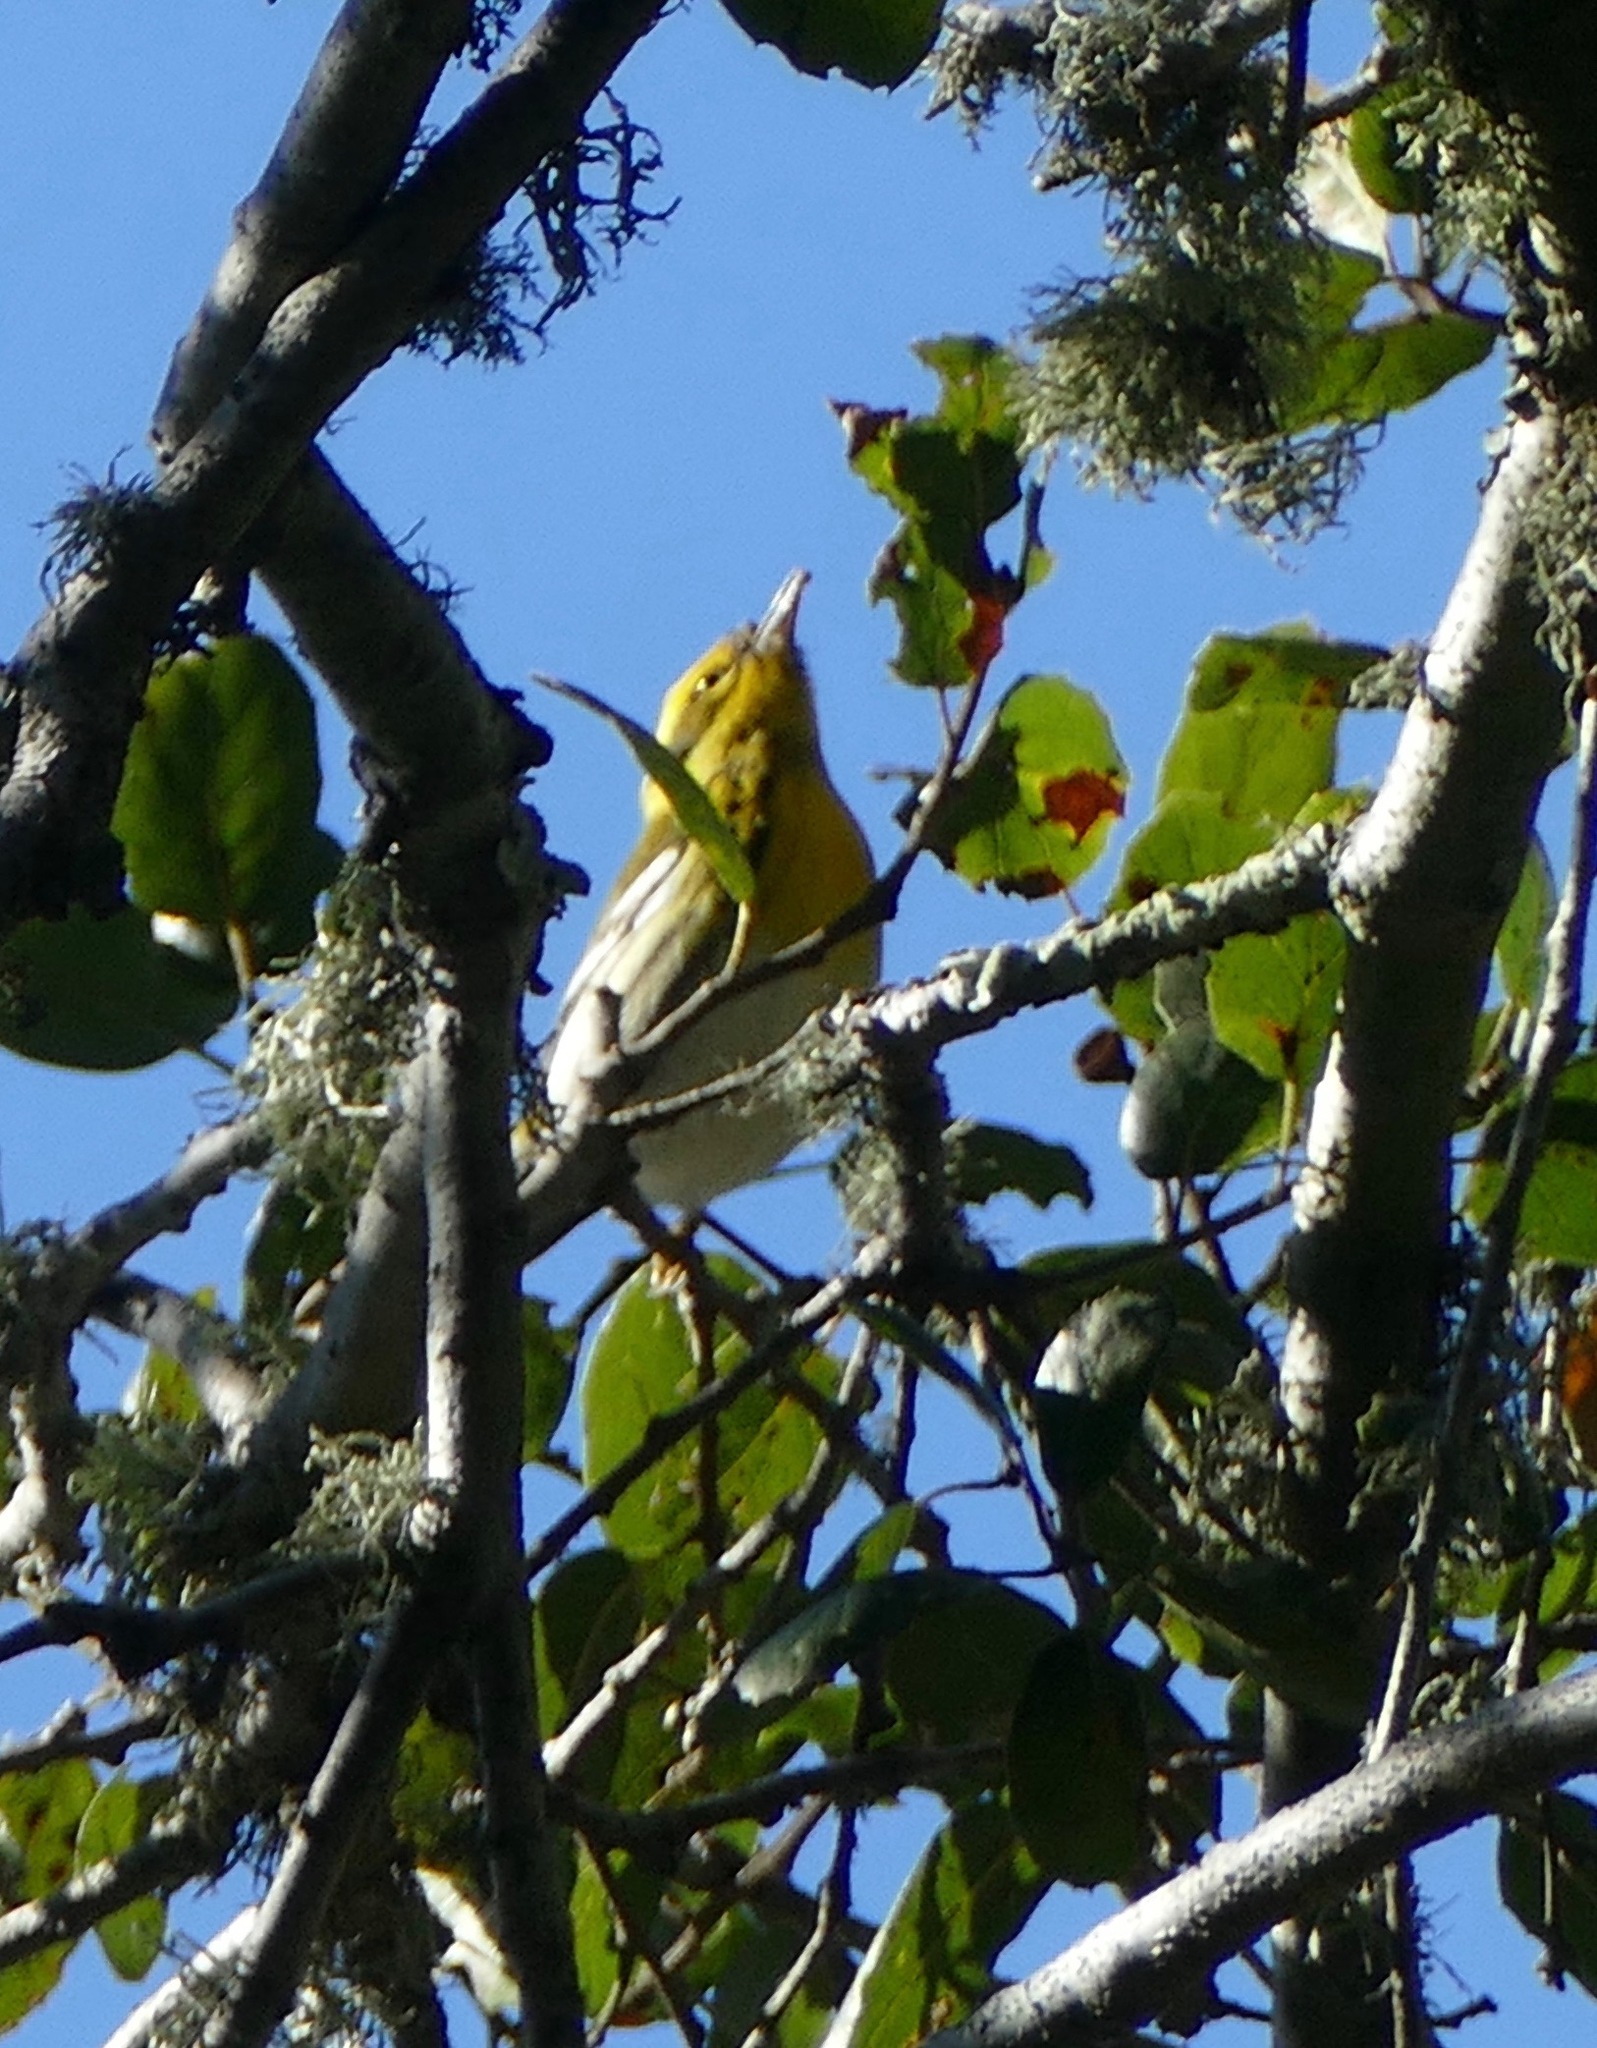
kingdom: Animalia
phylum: Chordata
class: Aves
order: Passeriformes
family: Parulidae
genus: Setophaga
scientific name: Setophaga townsendi
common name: Townsend's warbler
